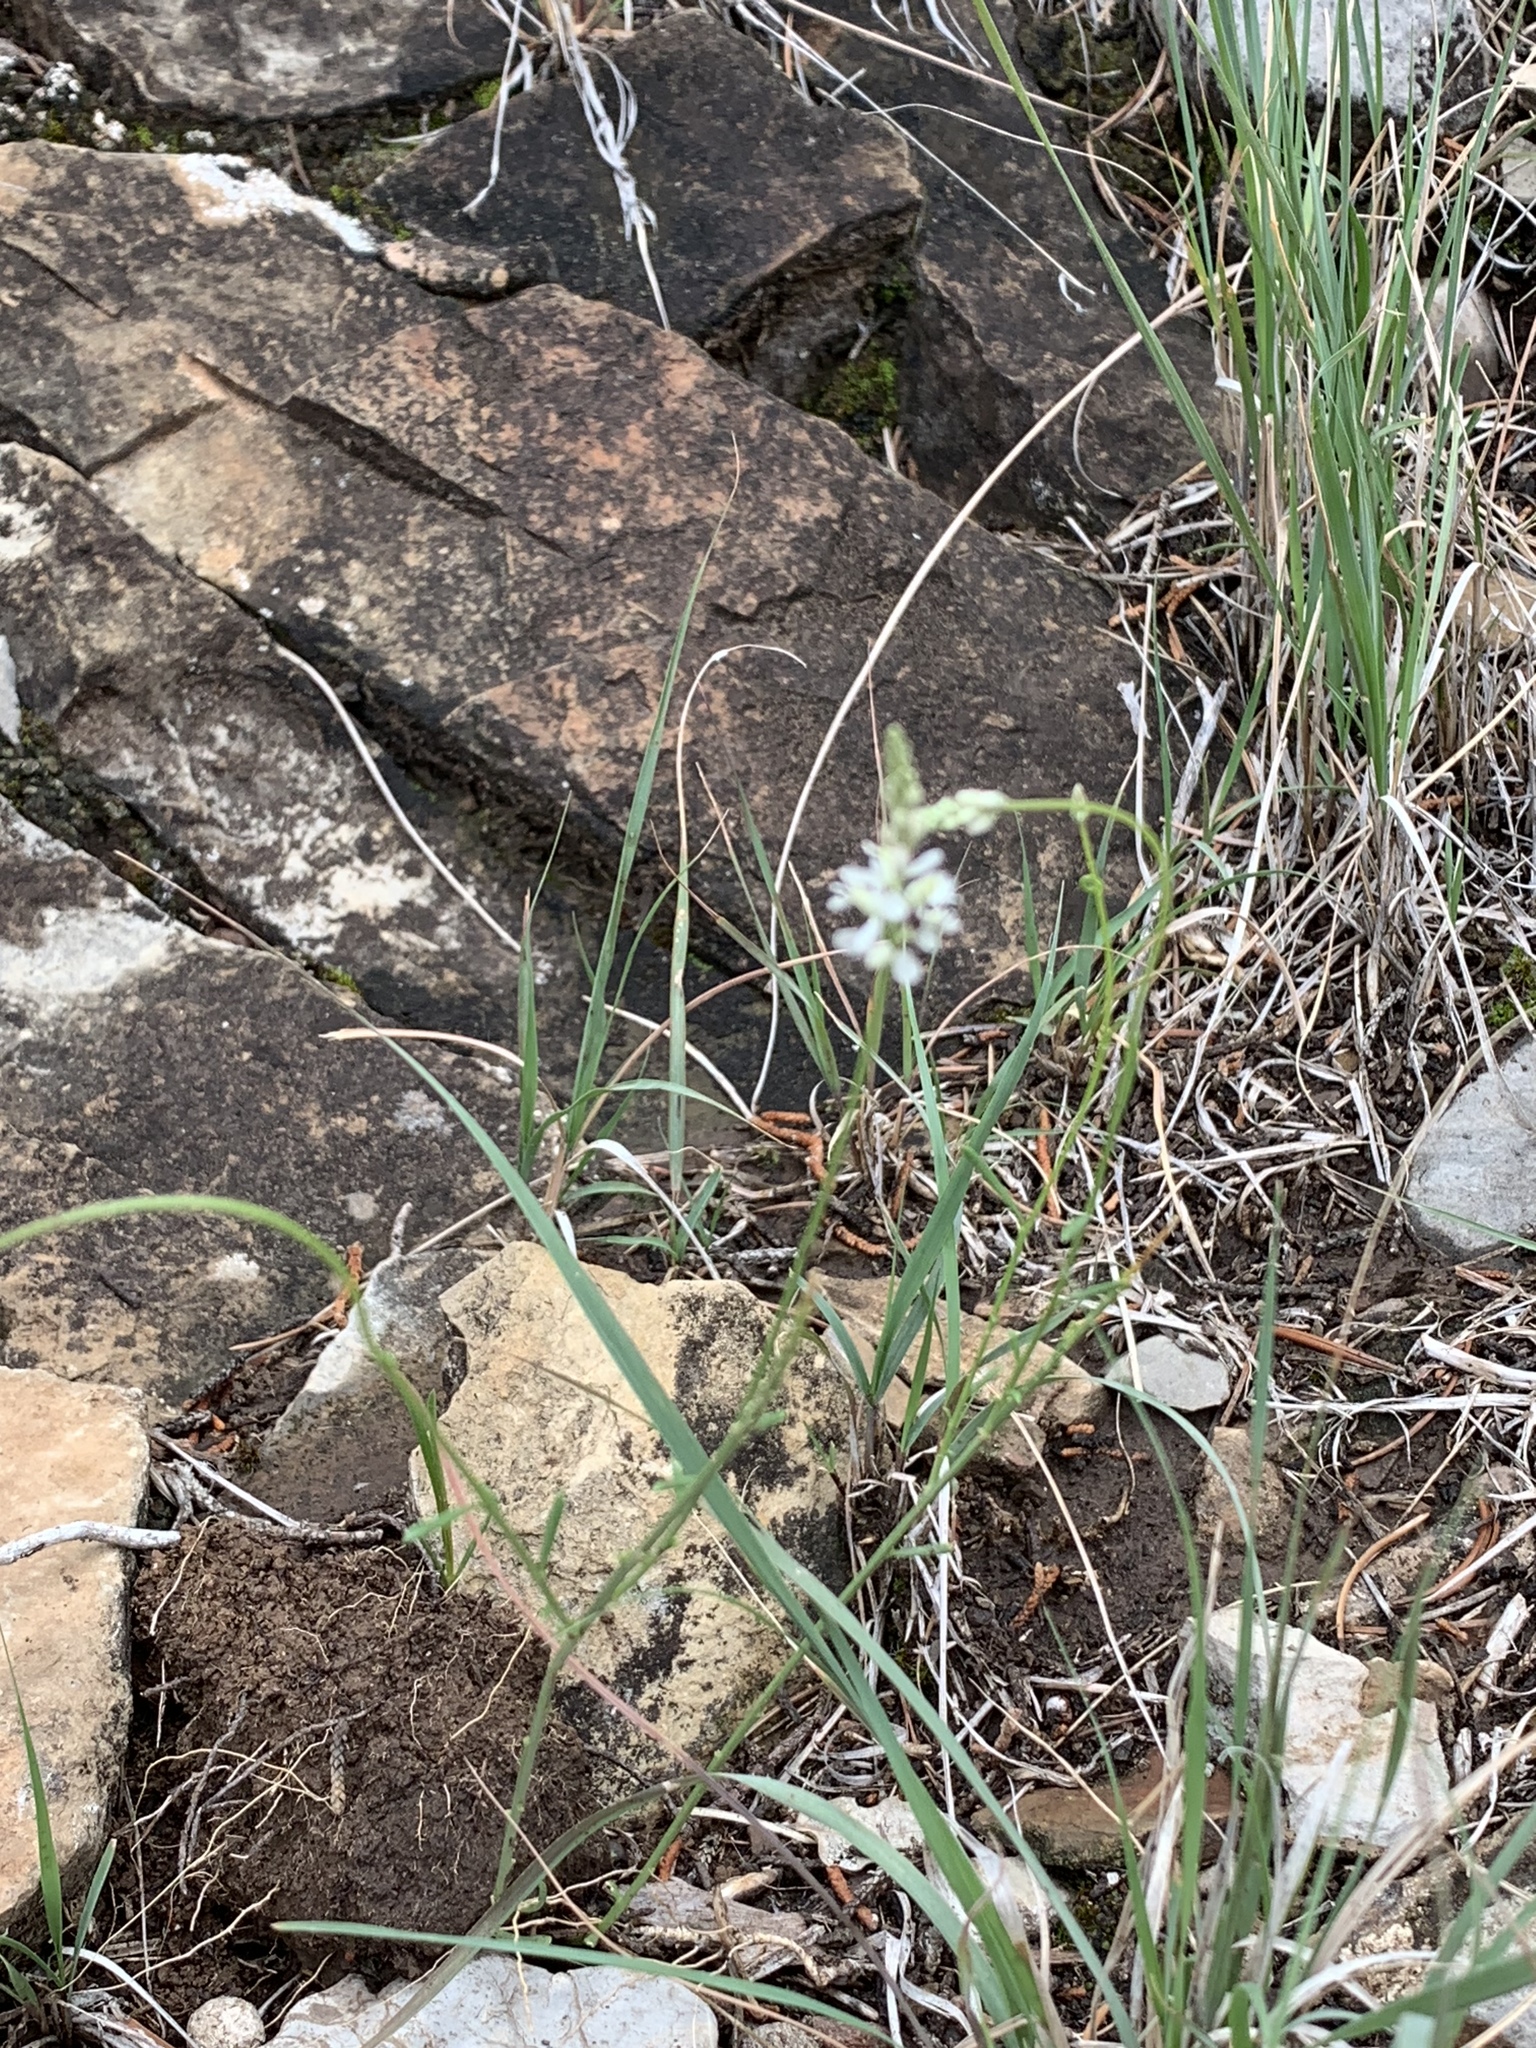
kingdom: Plantae
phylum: Tracheophyta
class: Magnoliopsida
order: Fabales
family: Polygalaceae
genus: Polygala
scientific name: Polygala alba
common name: White milkwort
